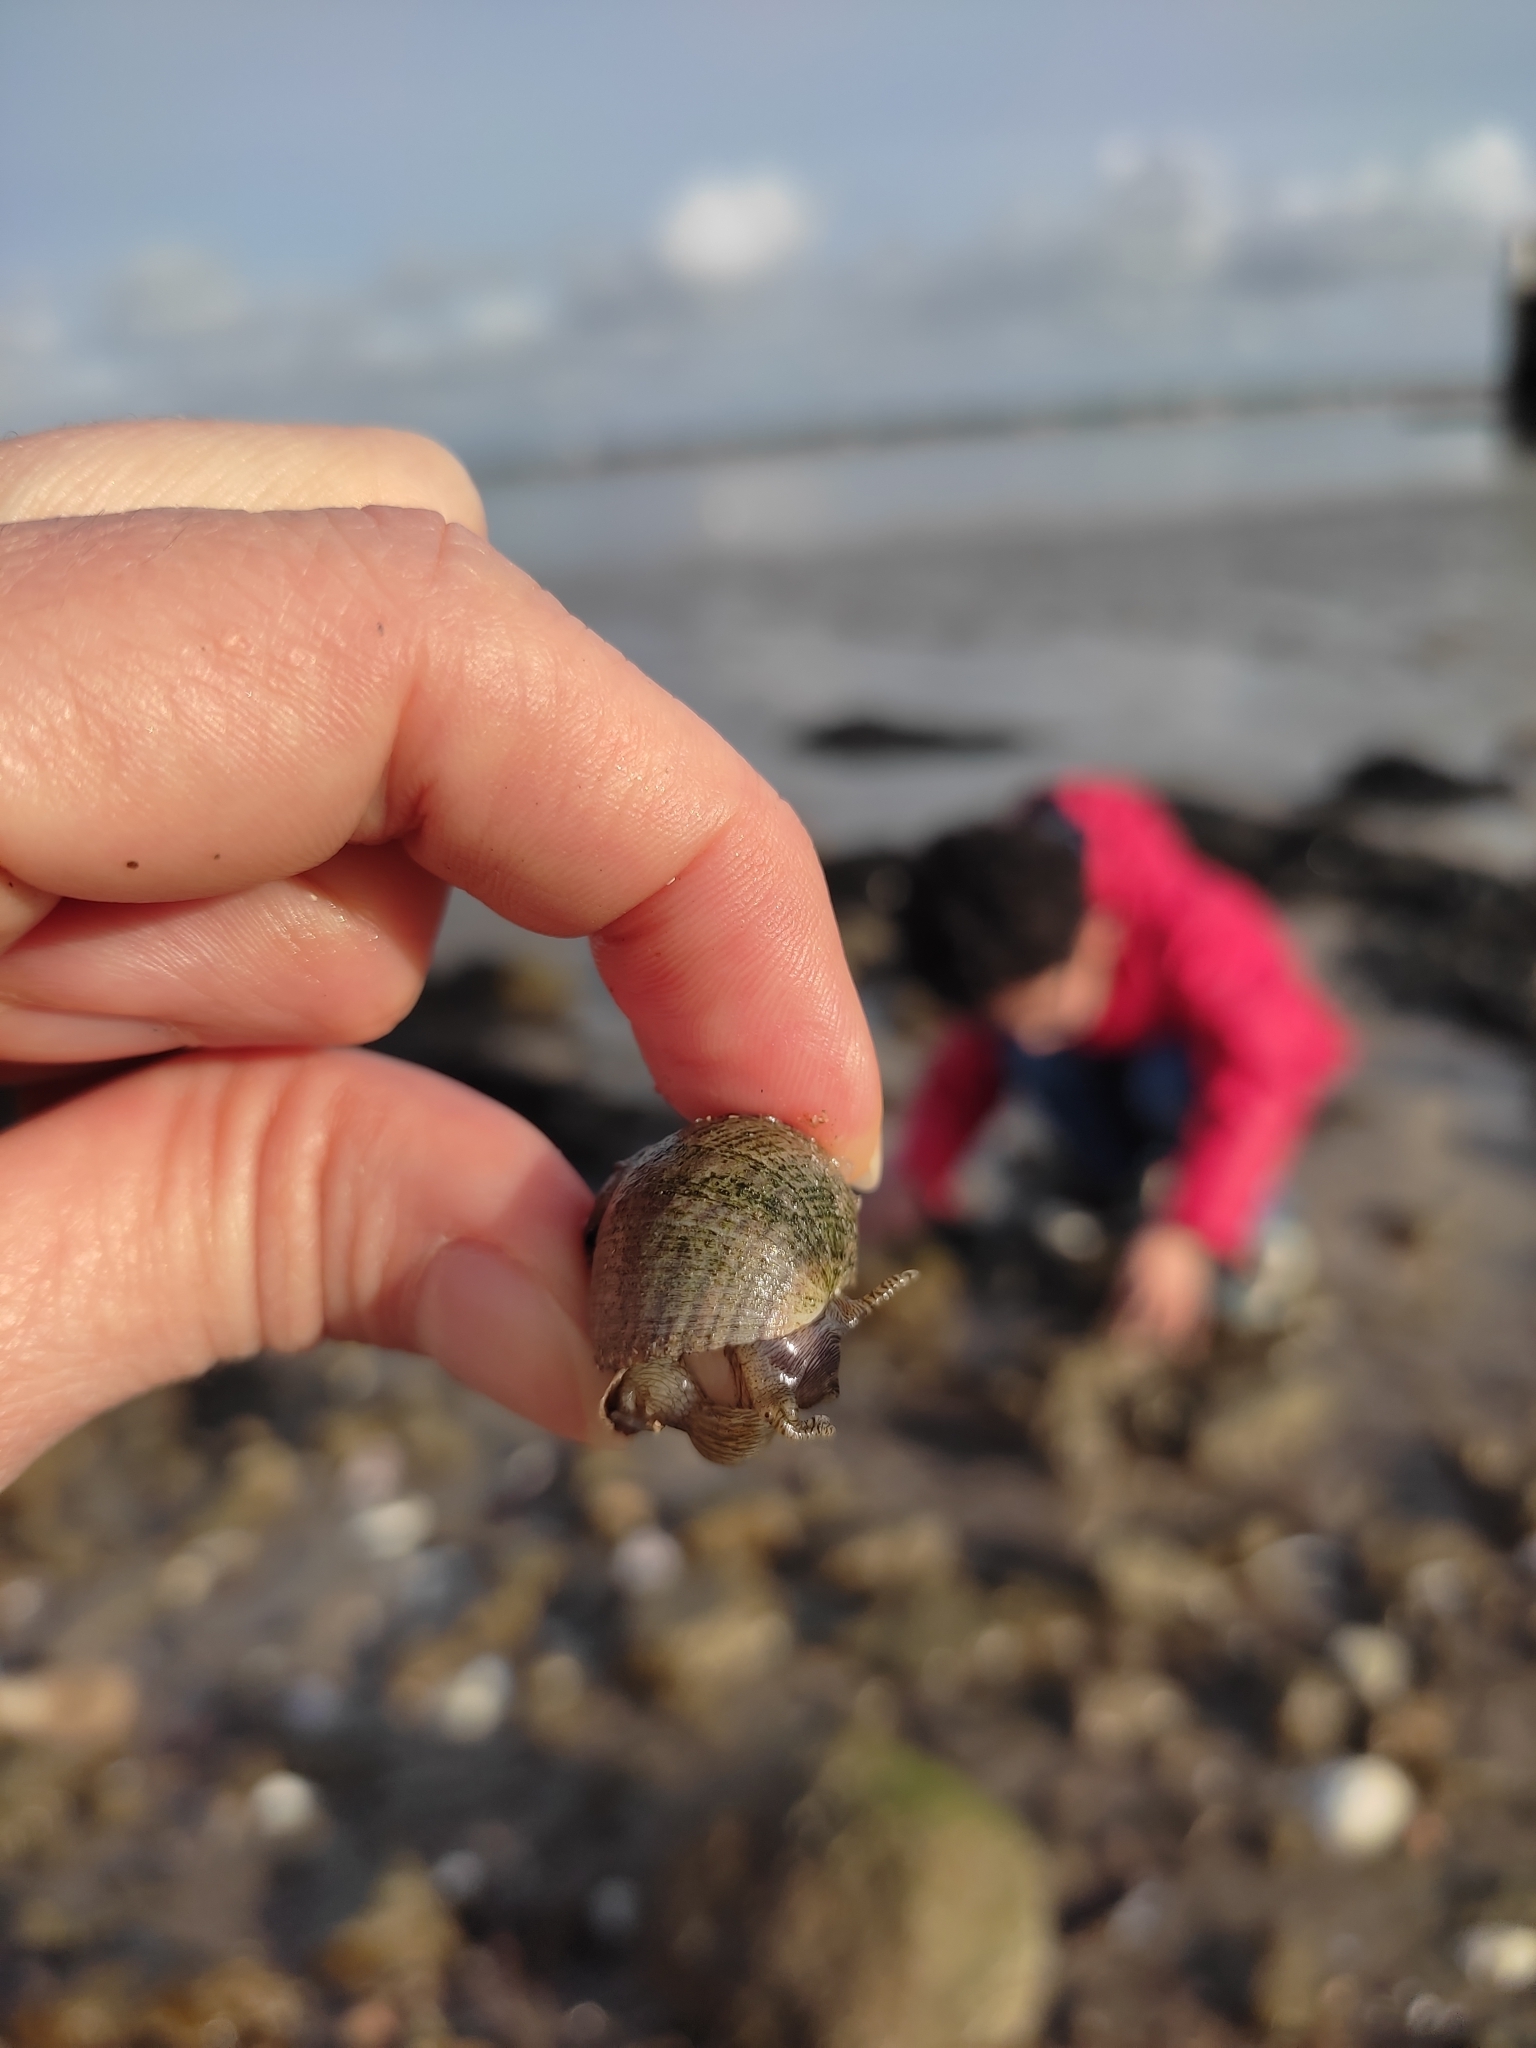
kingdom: Animalia
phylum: Mollusca
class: Gastropoda
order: Littorinimorpha
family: Littorinidae
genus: Littorina
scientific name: Littorina littorea
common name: Common periwinkle
